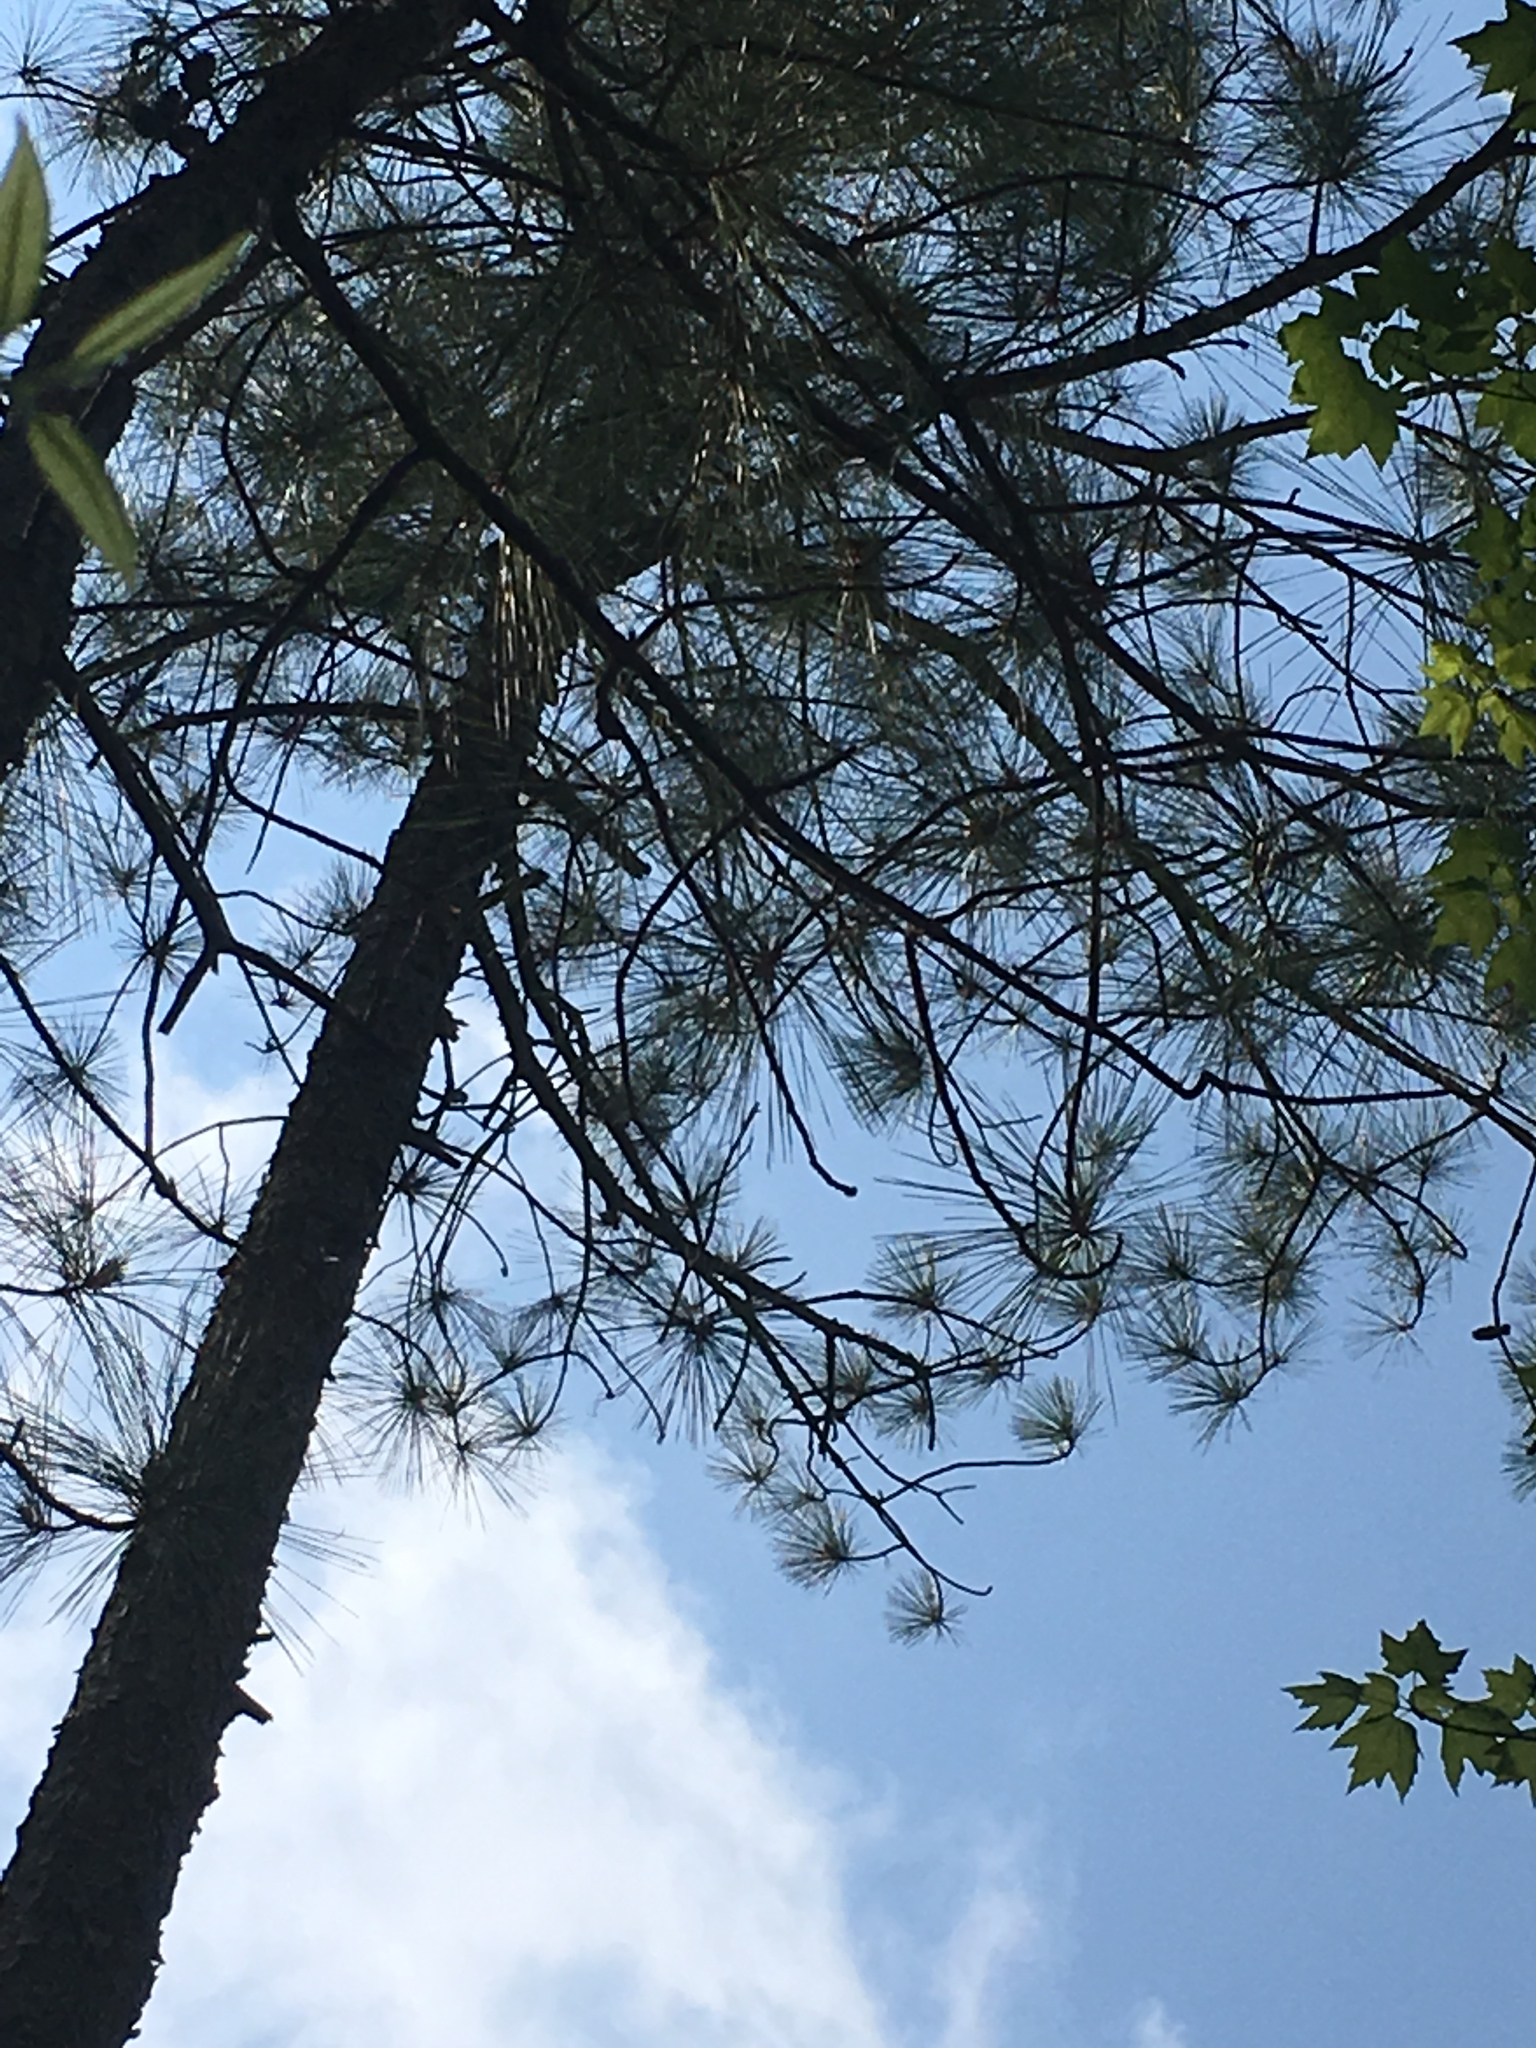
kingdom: Plantae
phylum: Tracheophyta
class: Pinopsida
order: Pinales
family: Pinaceae
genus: Pinus
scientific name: Pinus taeda
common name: Loblolly pine
